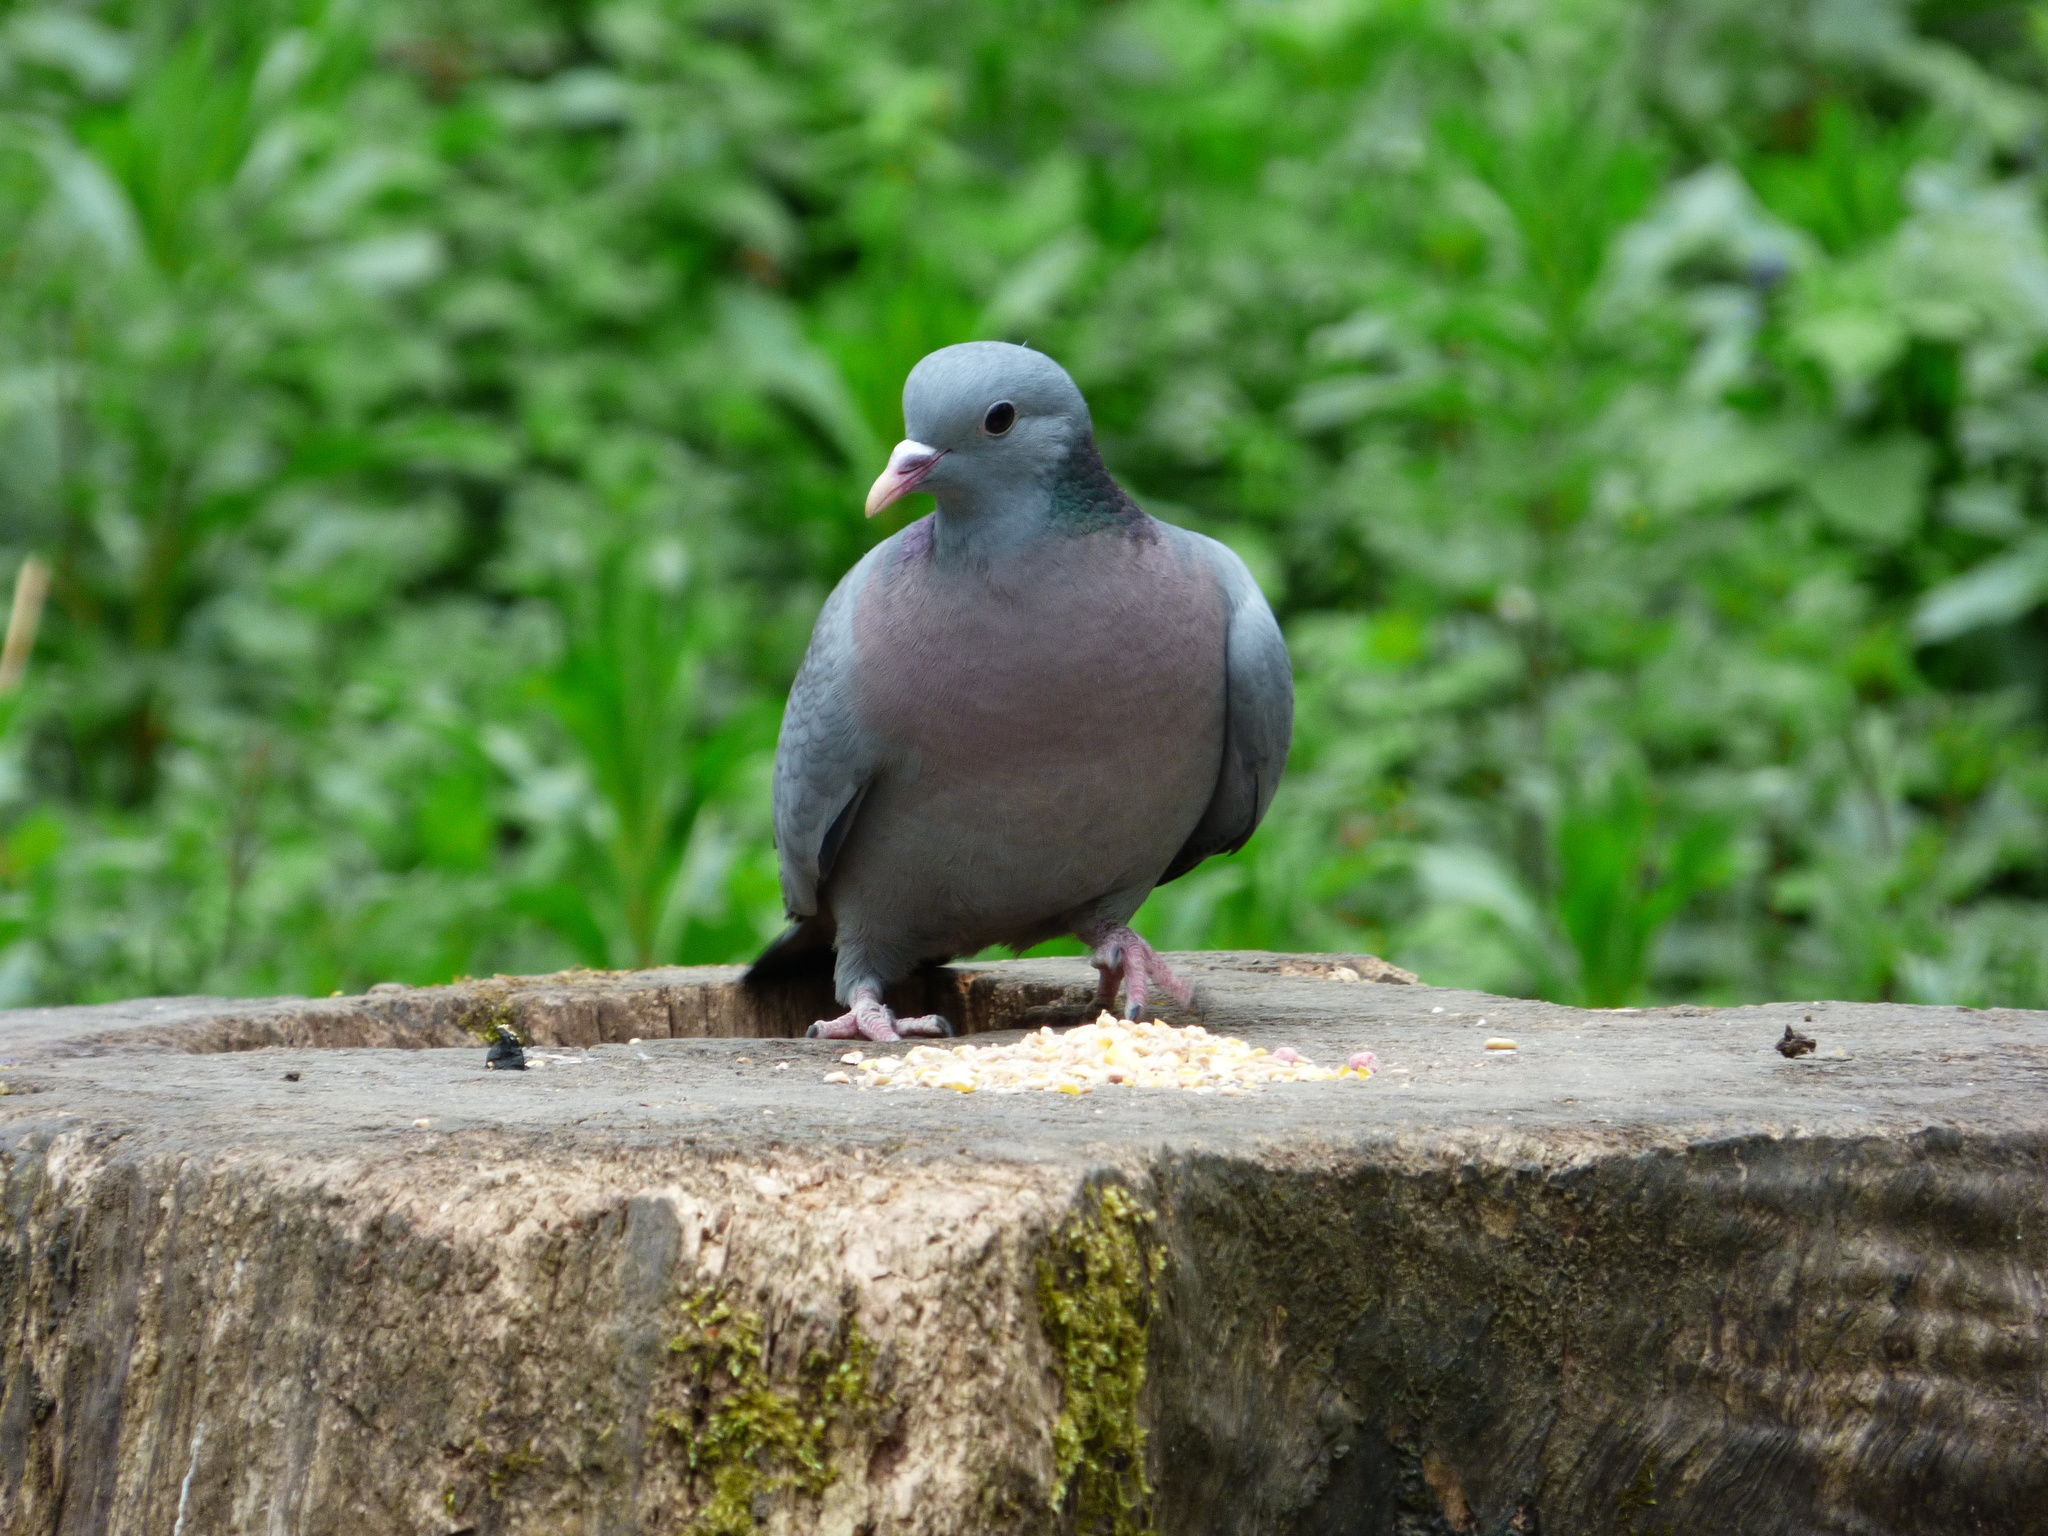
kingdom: Animalia
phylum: Chordata
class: Aves
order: Columbiformes
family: Columbidae
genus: Columba
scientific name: Columba oenas
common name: Stock dove
